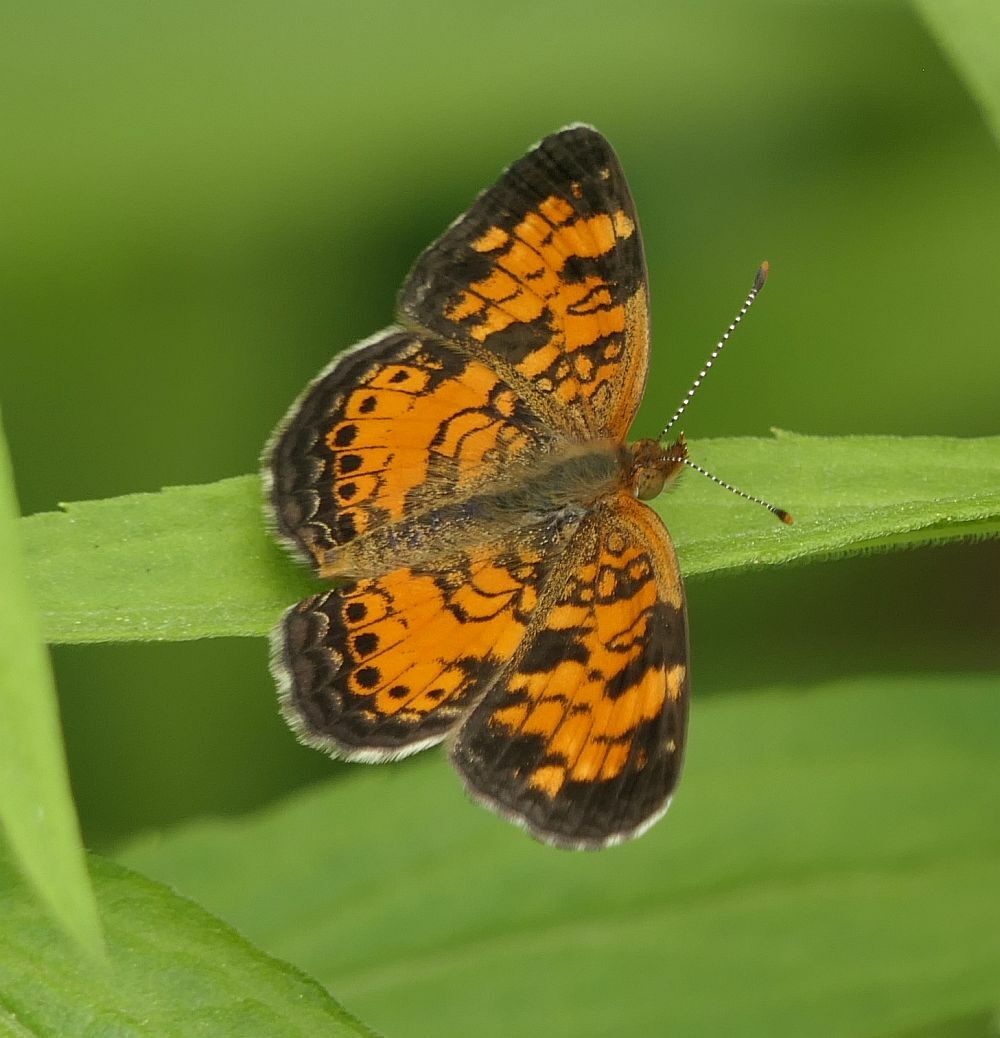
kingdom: Animalia
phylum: Arthropoda
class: Insecta
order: Lepidoptera
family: Nymphalidae
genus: Phyciodes
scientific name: Phyciodes tharos
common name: Pearl crescent
